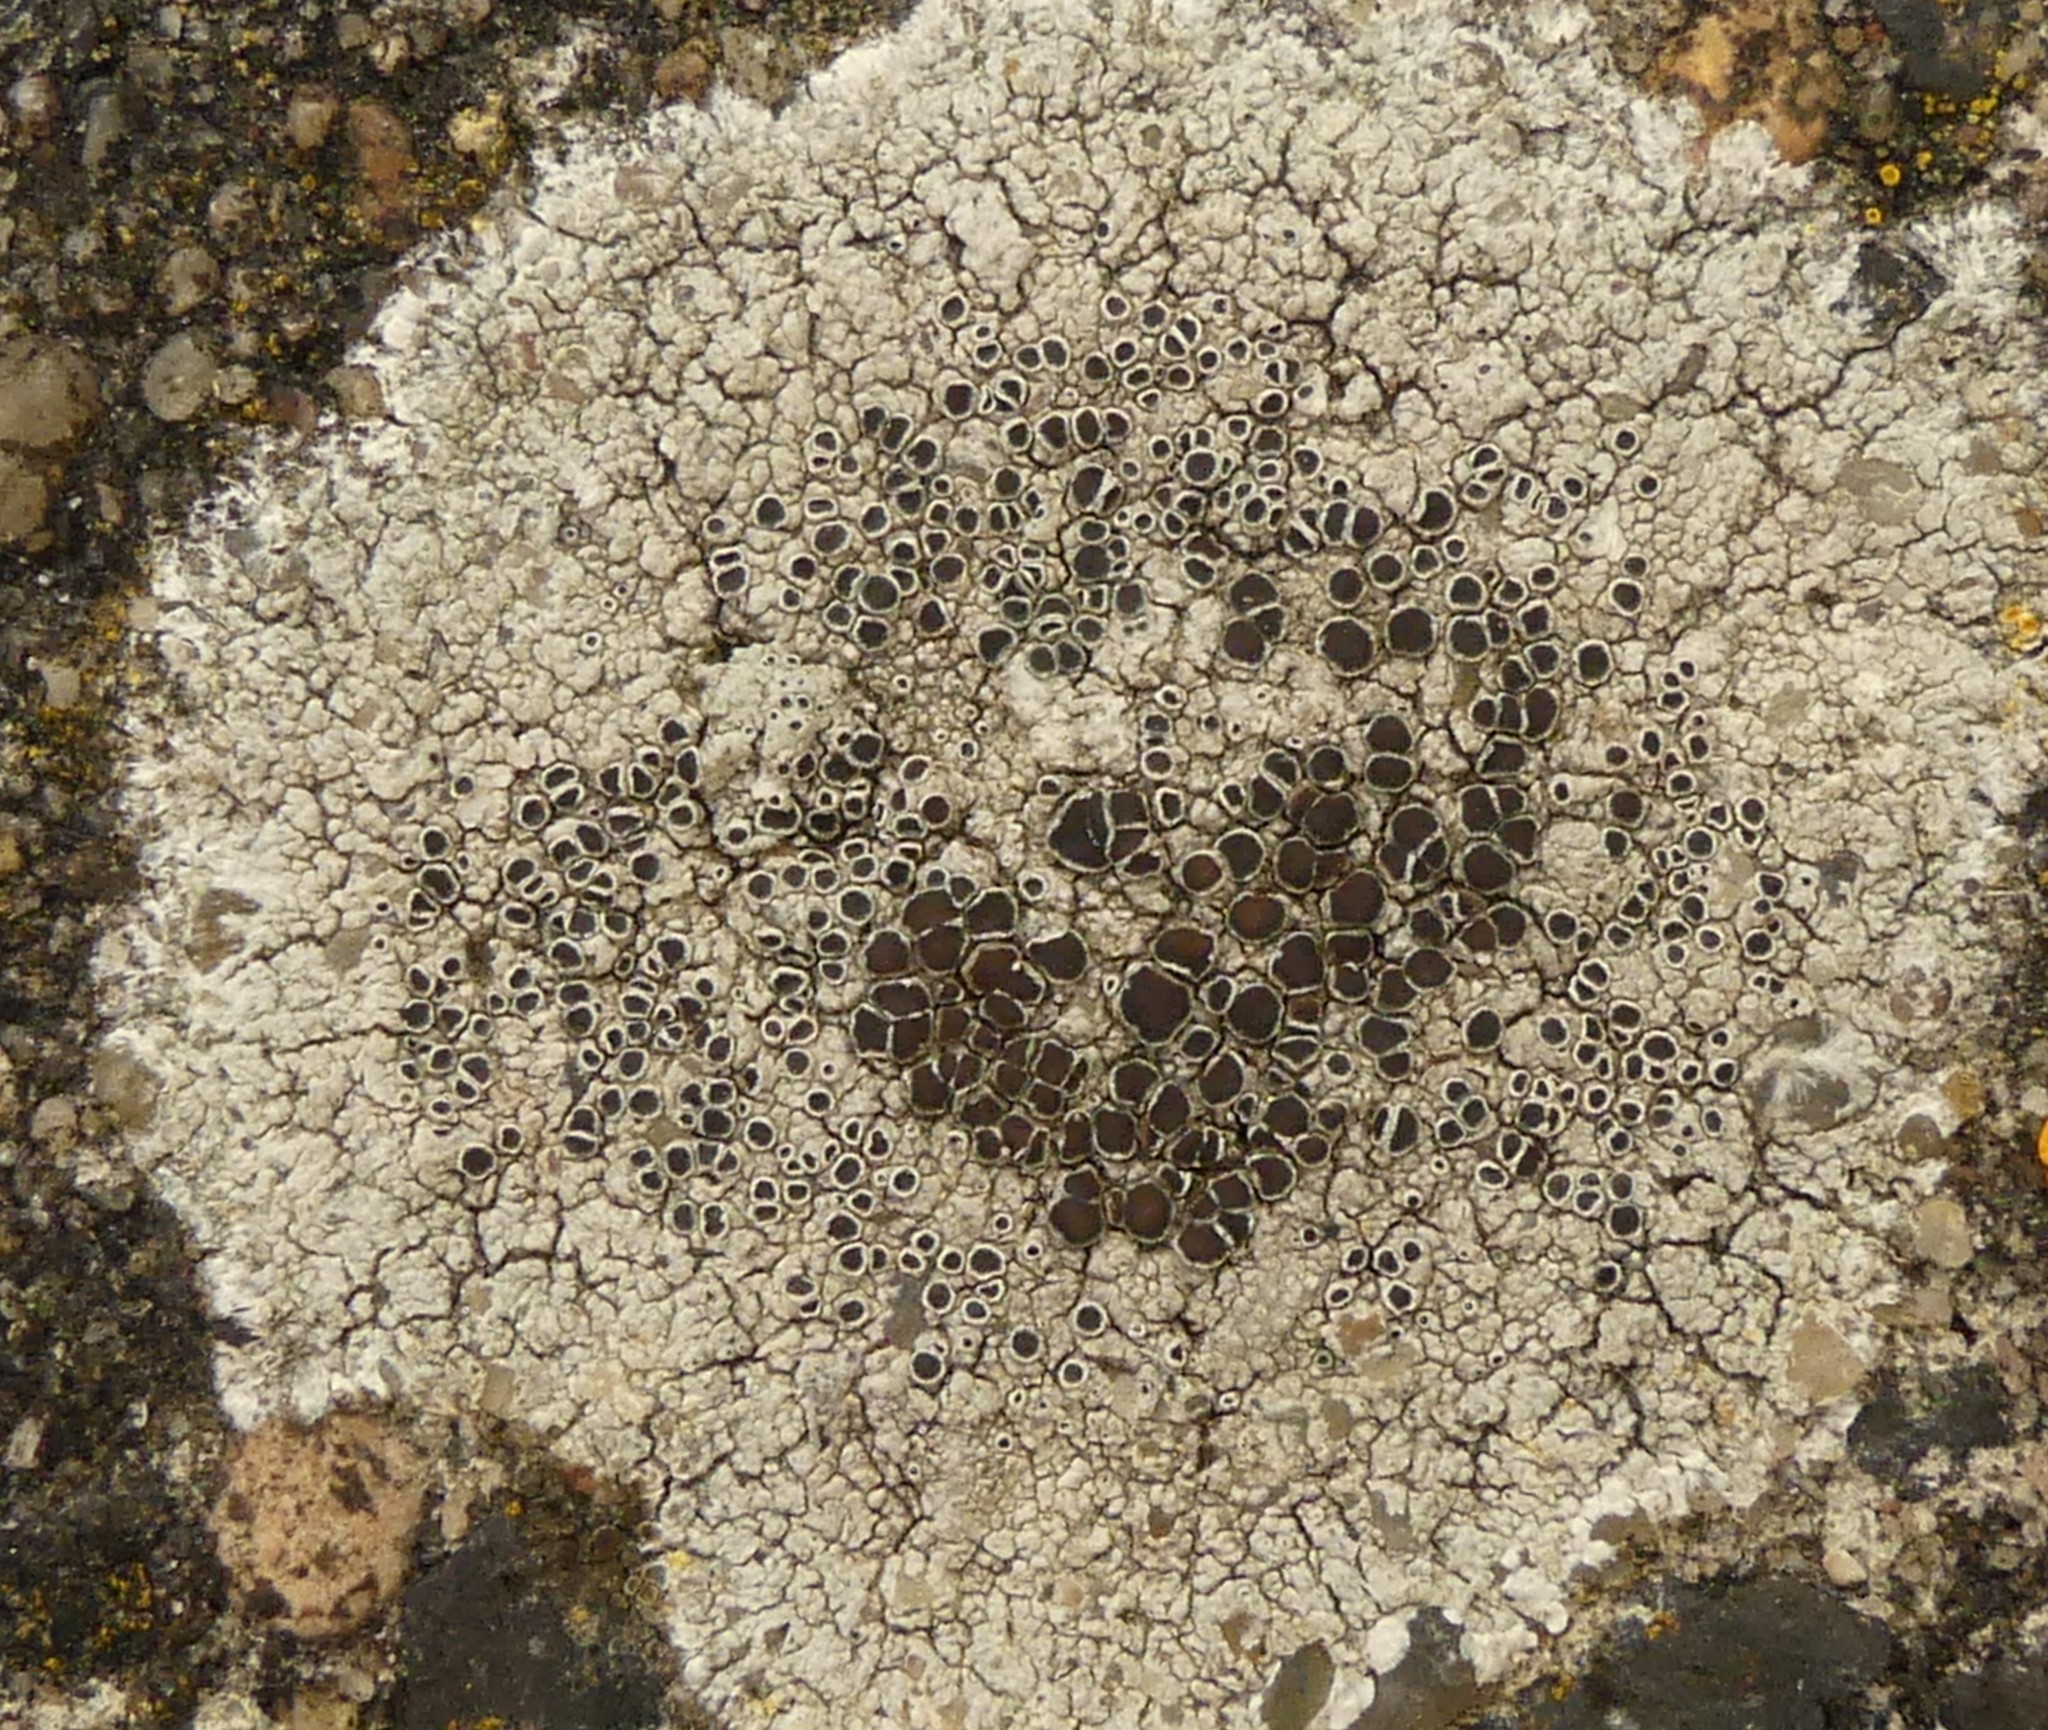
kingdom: Fungi
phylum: Ascomycota
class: Lecanoromycetes
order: Lecanorales
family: Lecanoraceae
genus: Lecanora
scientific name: Lecanora campestris
